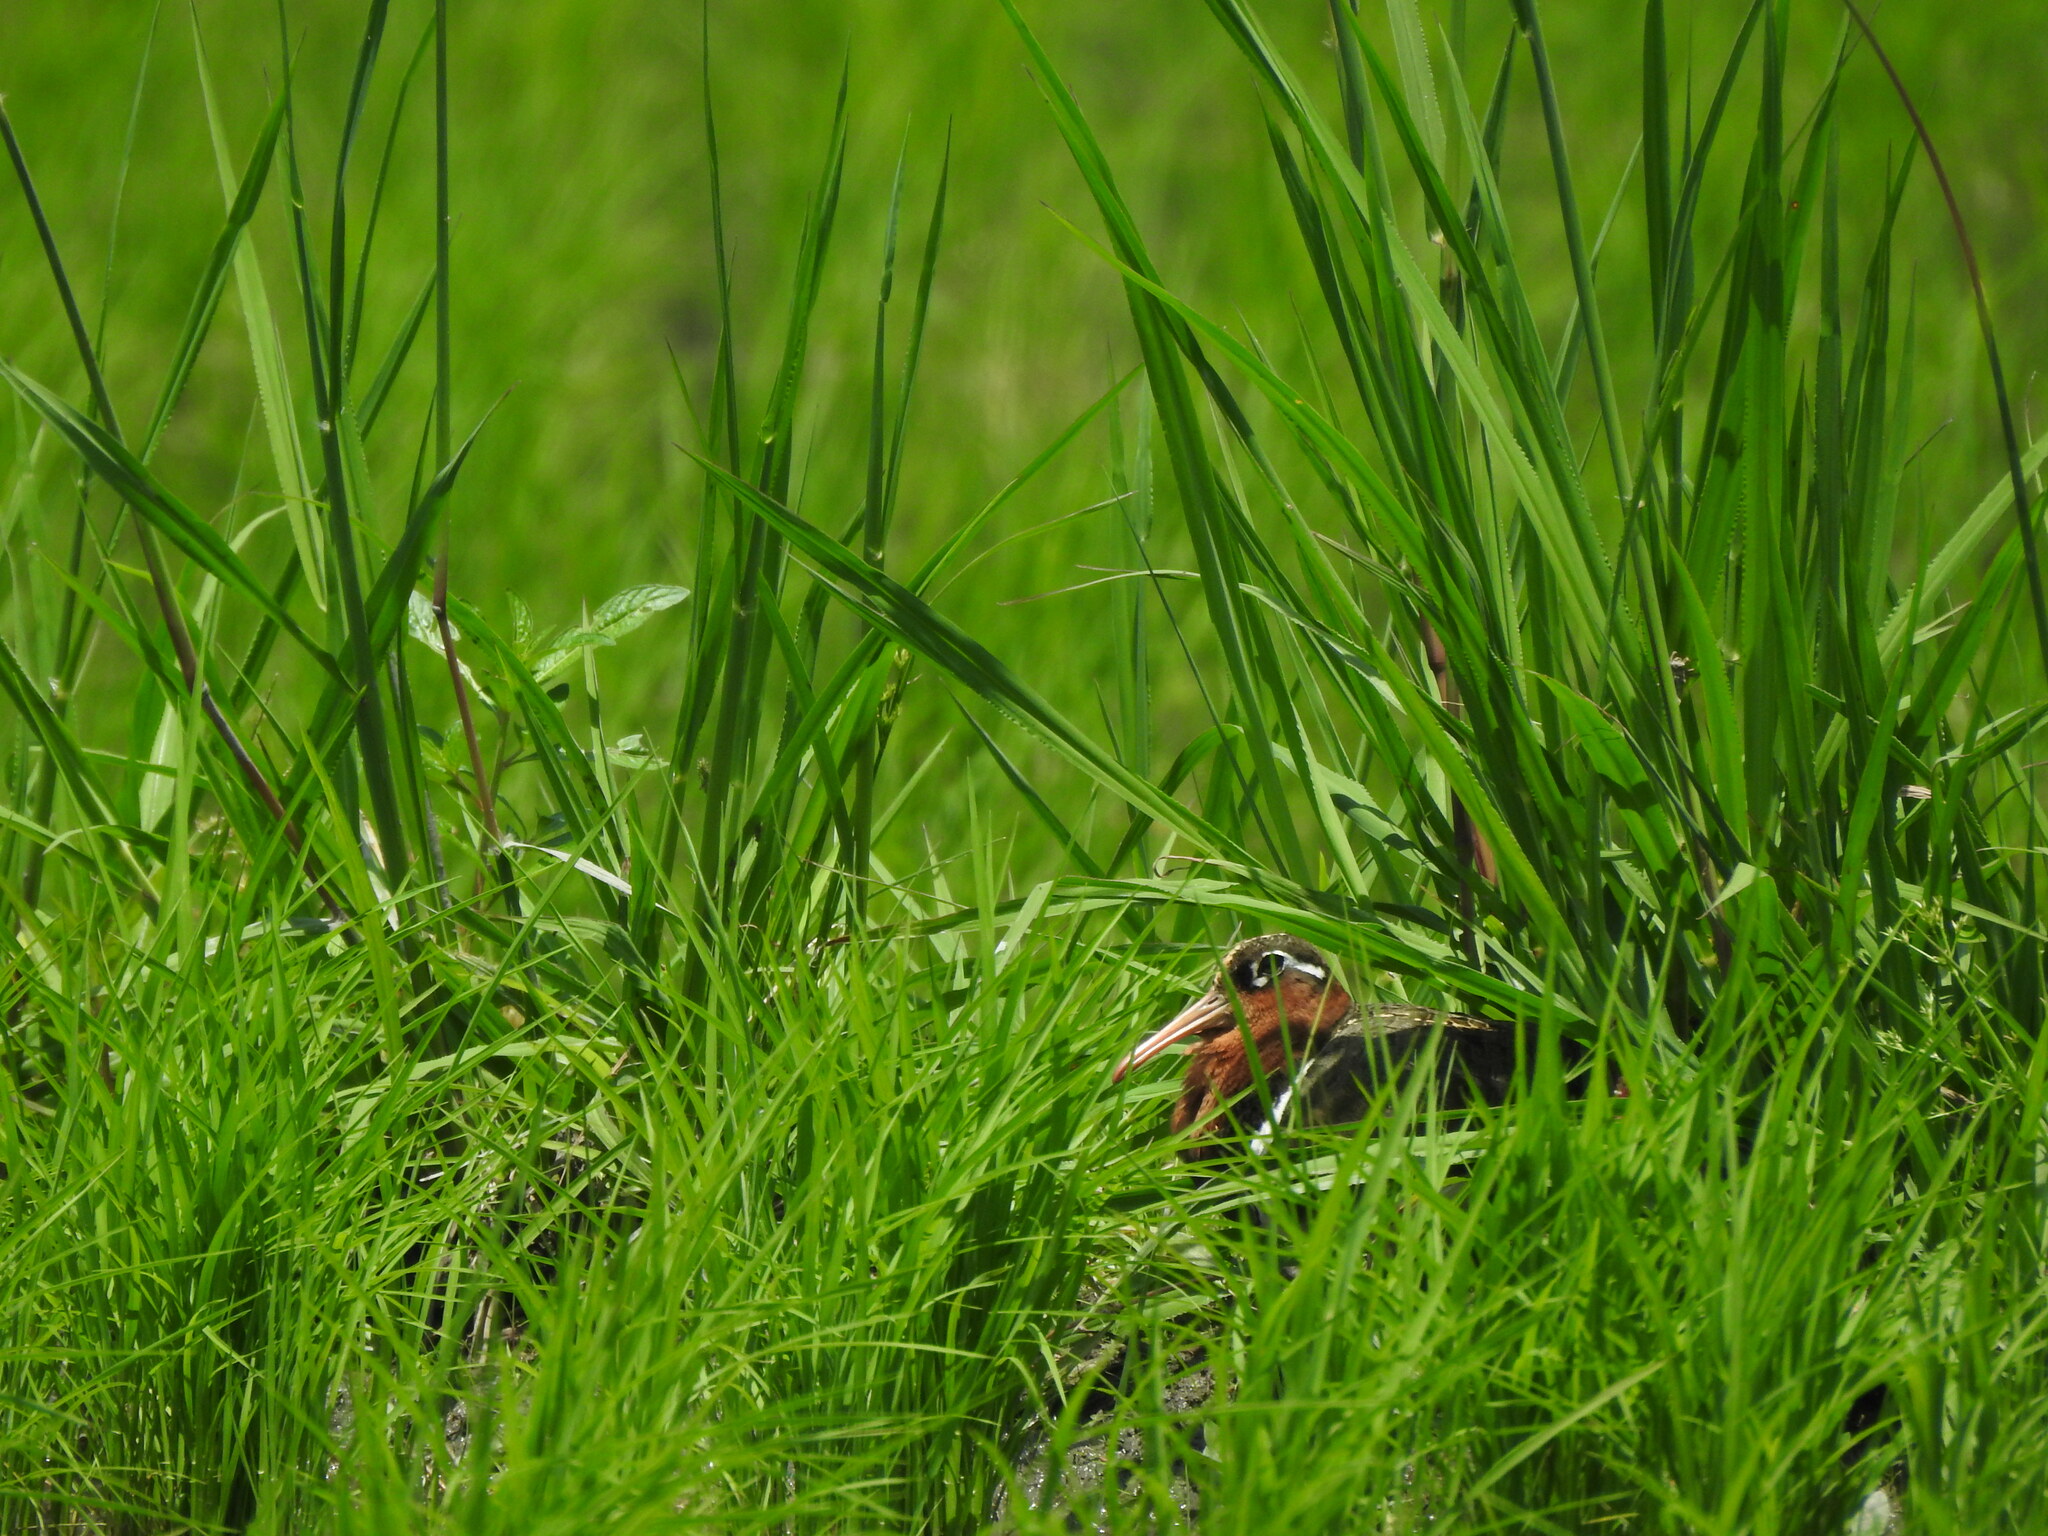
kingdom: Animalia
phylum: Chordata
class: Aves
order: Charadriiformes
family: Rostratulidae
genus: Rostratula
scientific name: Rostratula benghalensis
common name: Greater painted-snipe
